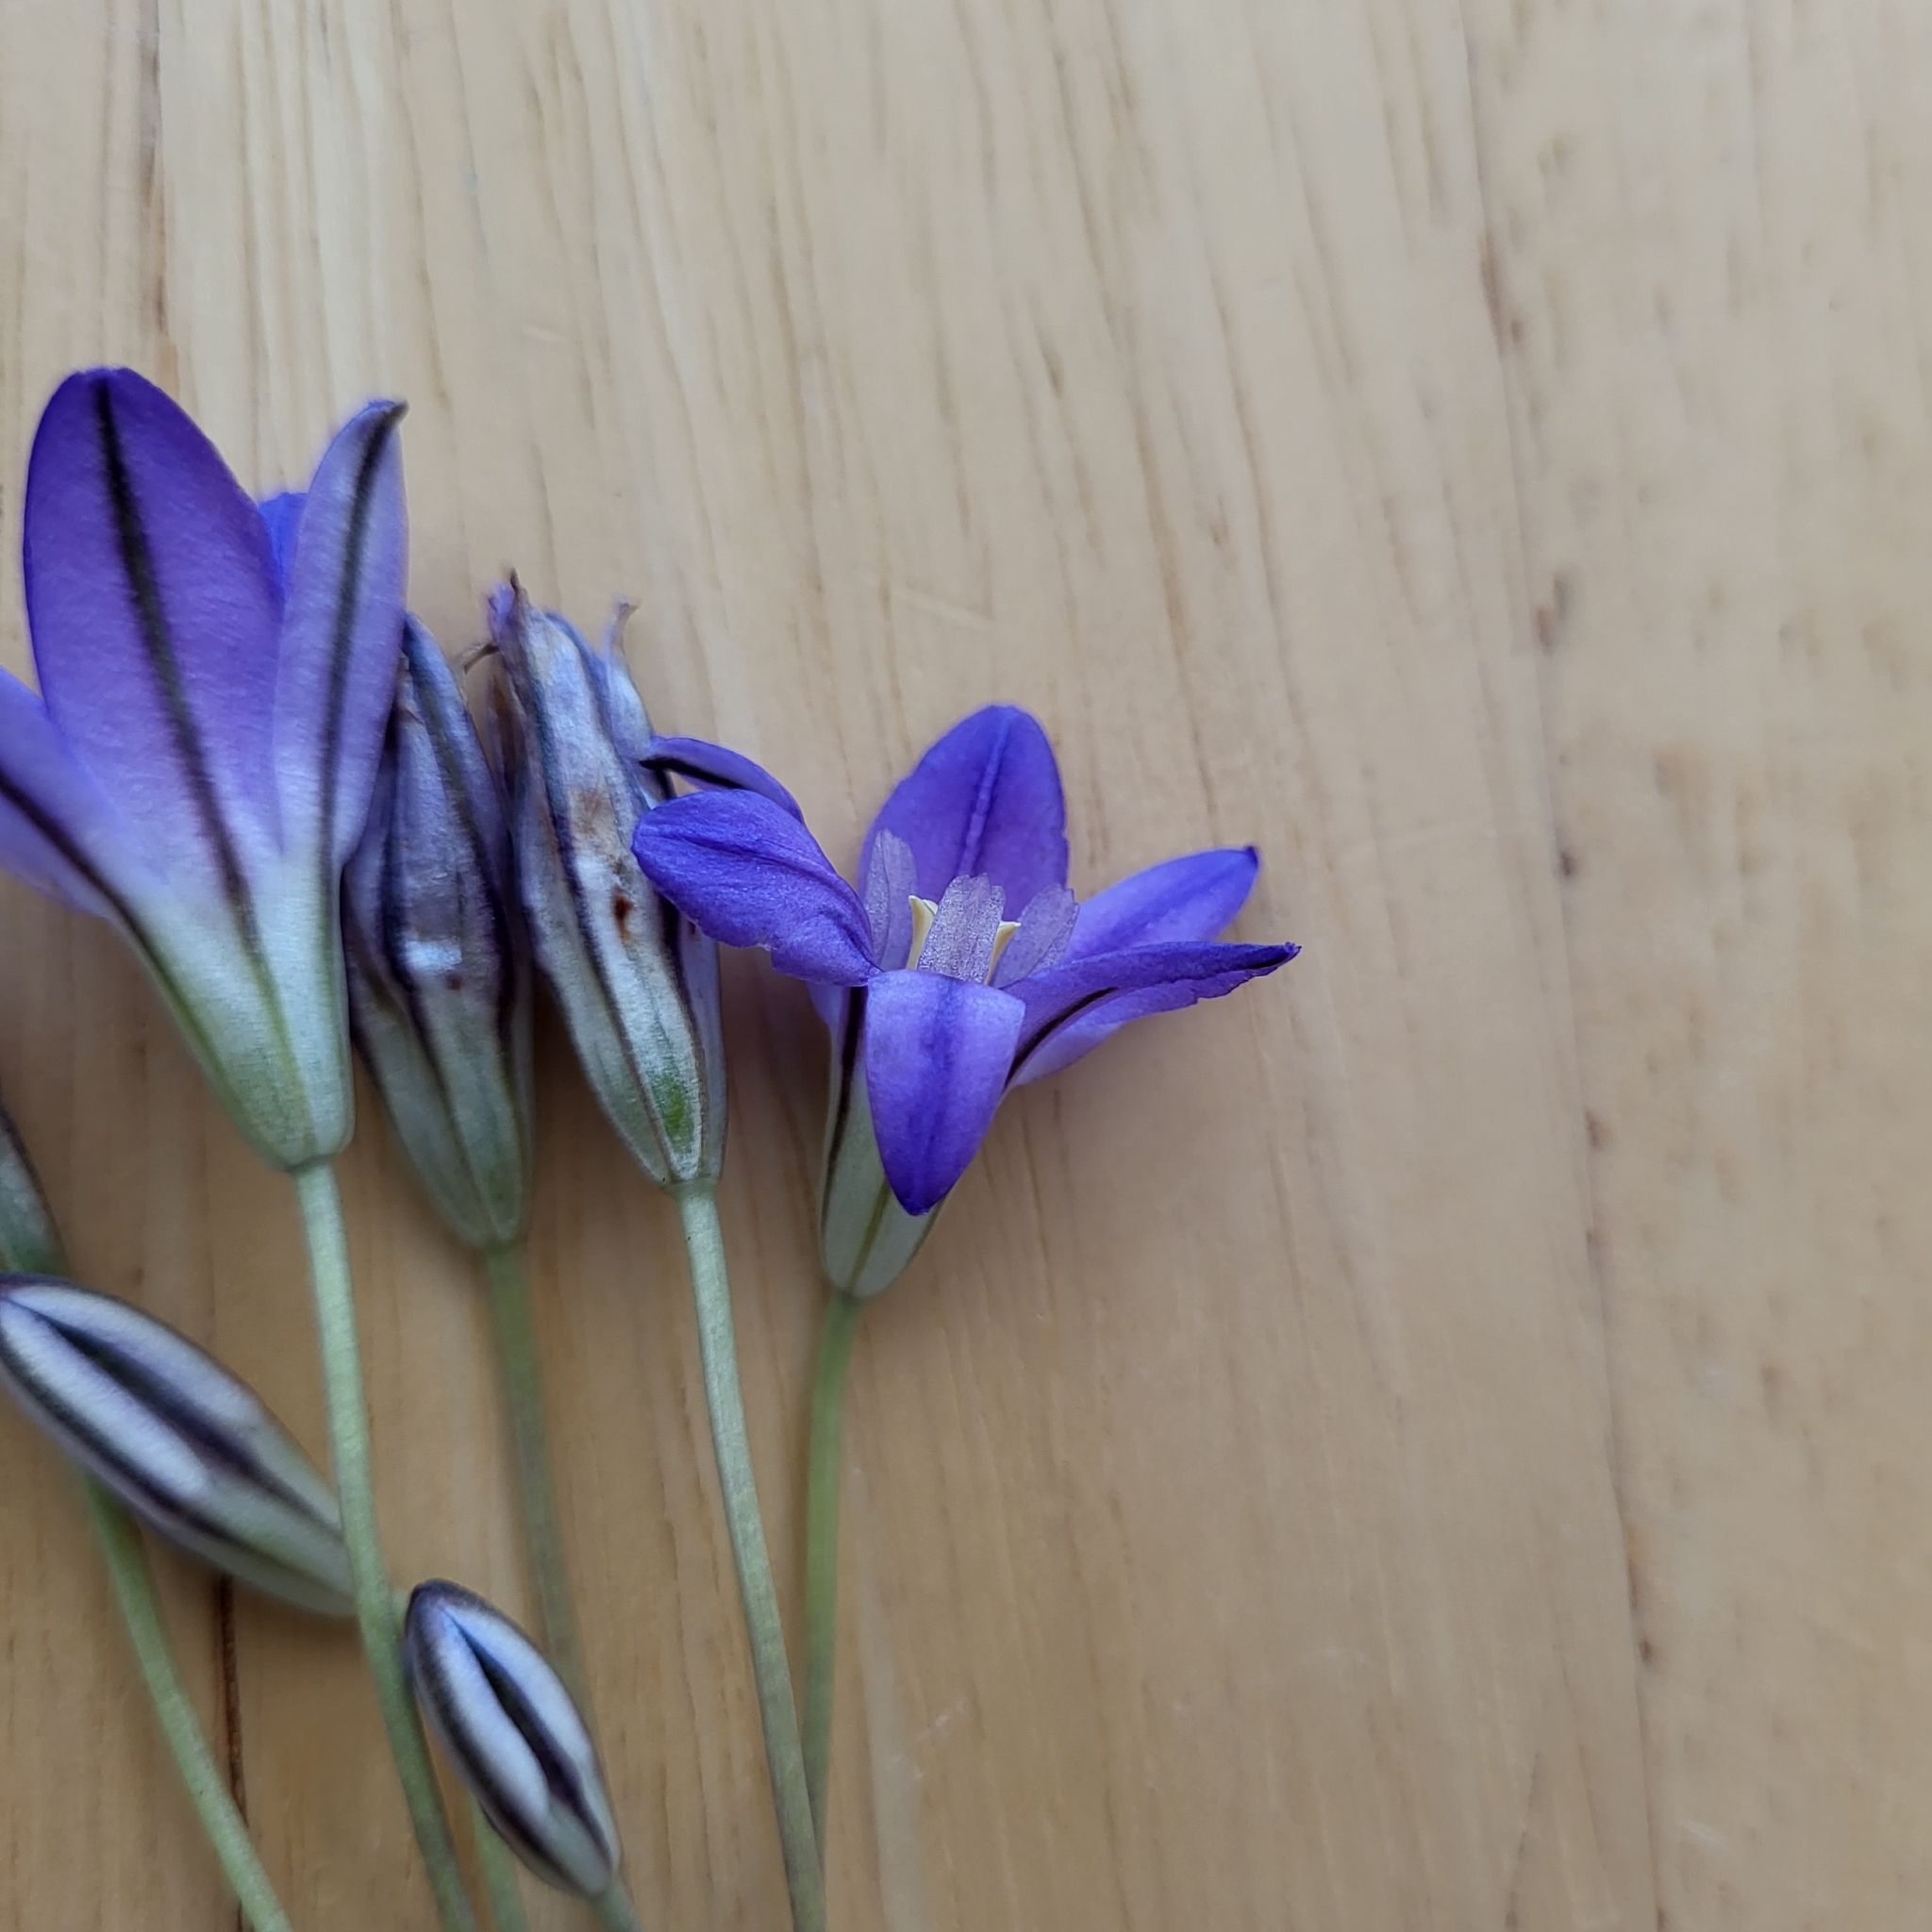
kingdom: Plantae
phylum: Tracheophyta
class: Liliopsida
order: Asparagales
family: Asparagaceae
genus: Brodiaea
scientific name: Brodiaea terrestris
